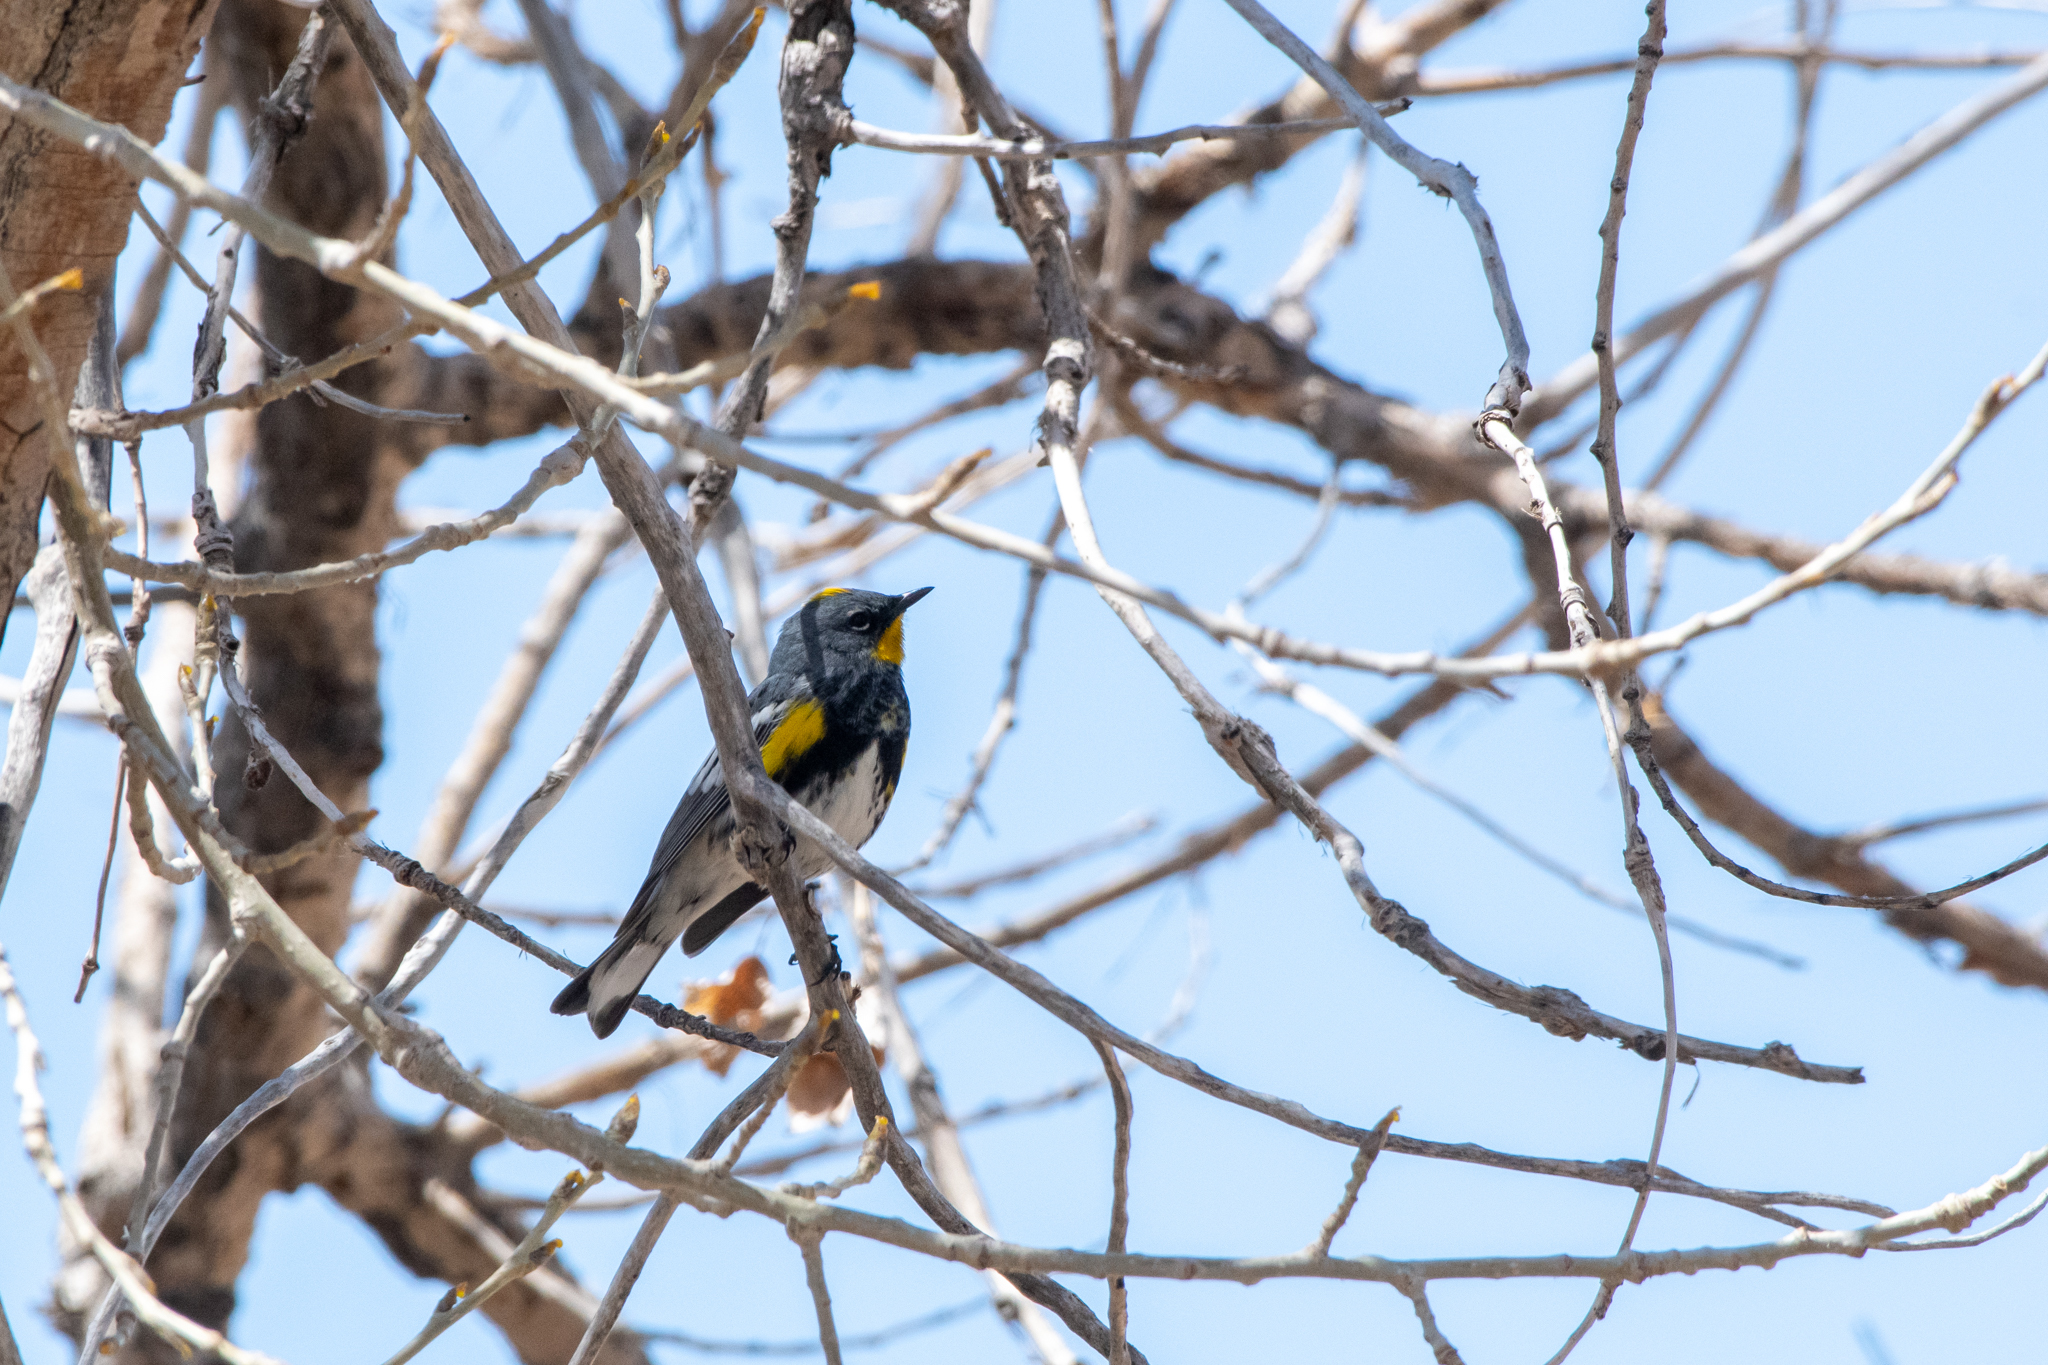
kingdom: Animalia
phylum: Chordata
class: Aves
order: Passeriformes
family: Parulidae
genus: Setophaga
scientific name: Setophaga coronata
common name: Myrtle warbler
